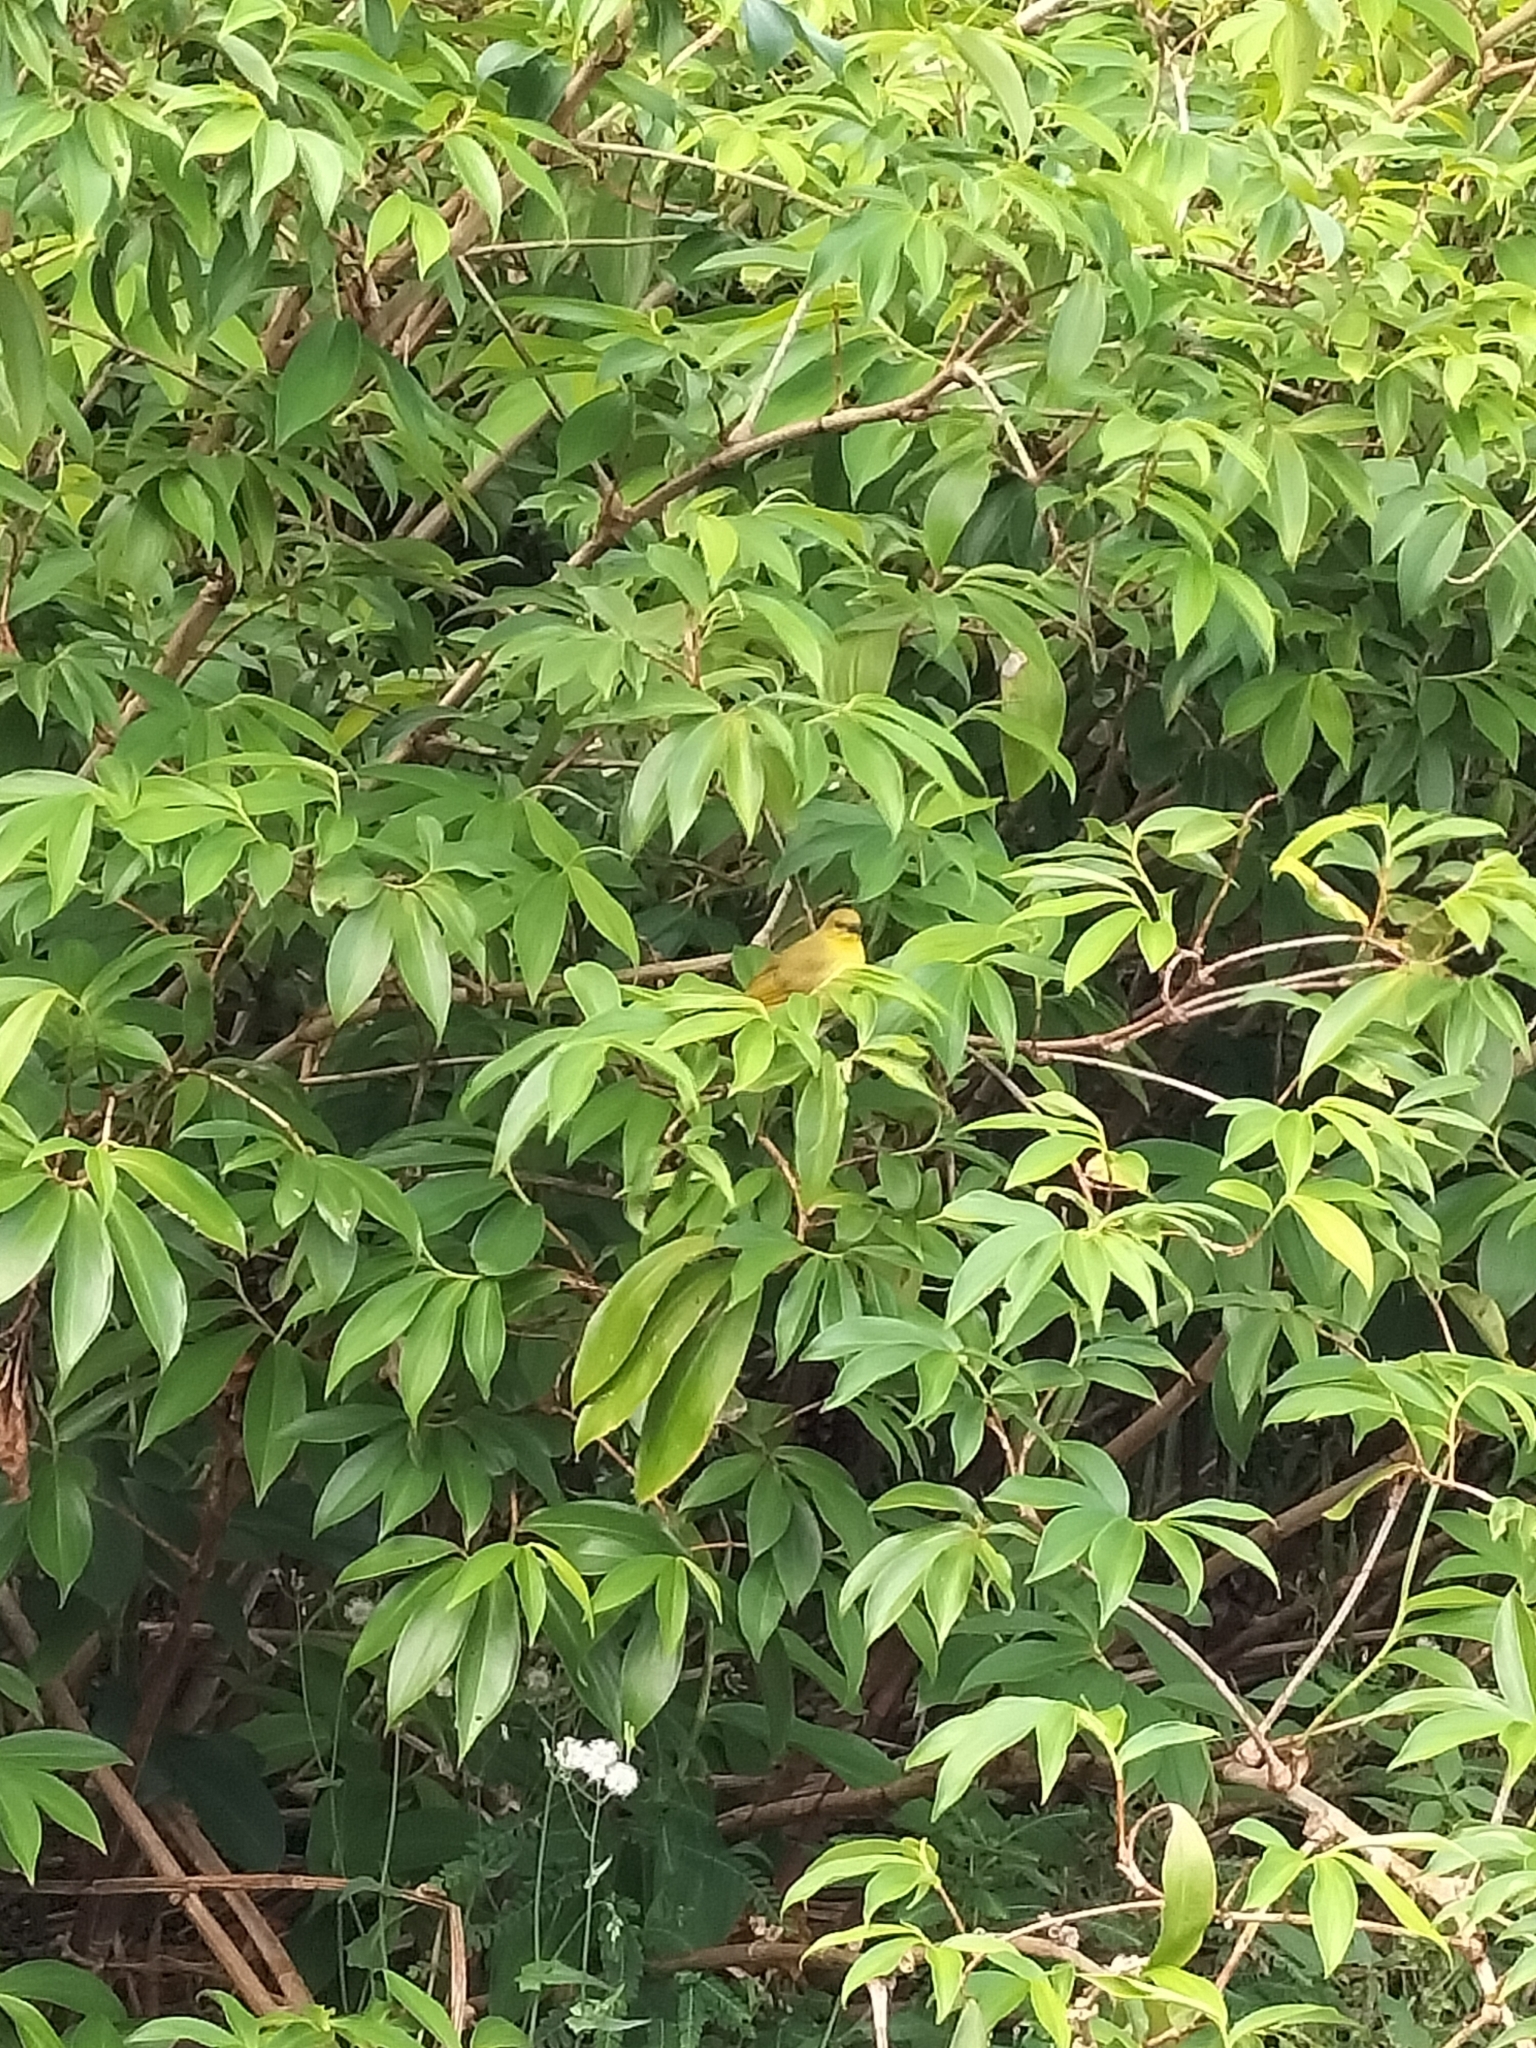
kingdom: Animalia
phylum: Chordata
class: Aves
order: Passeriformes
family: Meliphagidae
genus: Stomiopera
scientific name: Stomiopera flava
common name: Yellow honeyeater
